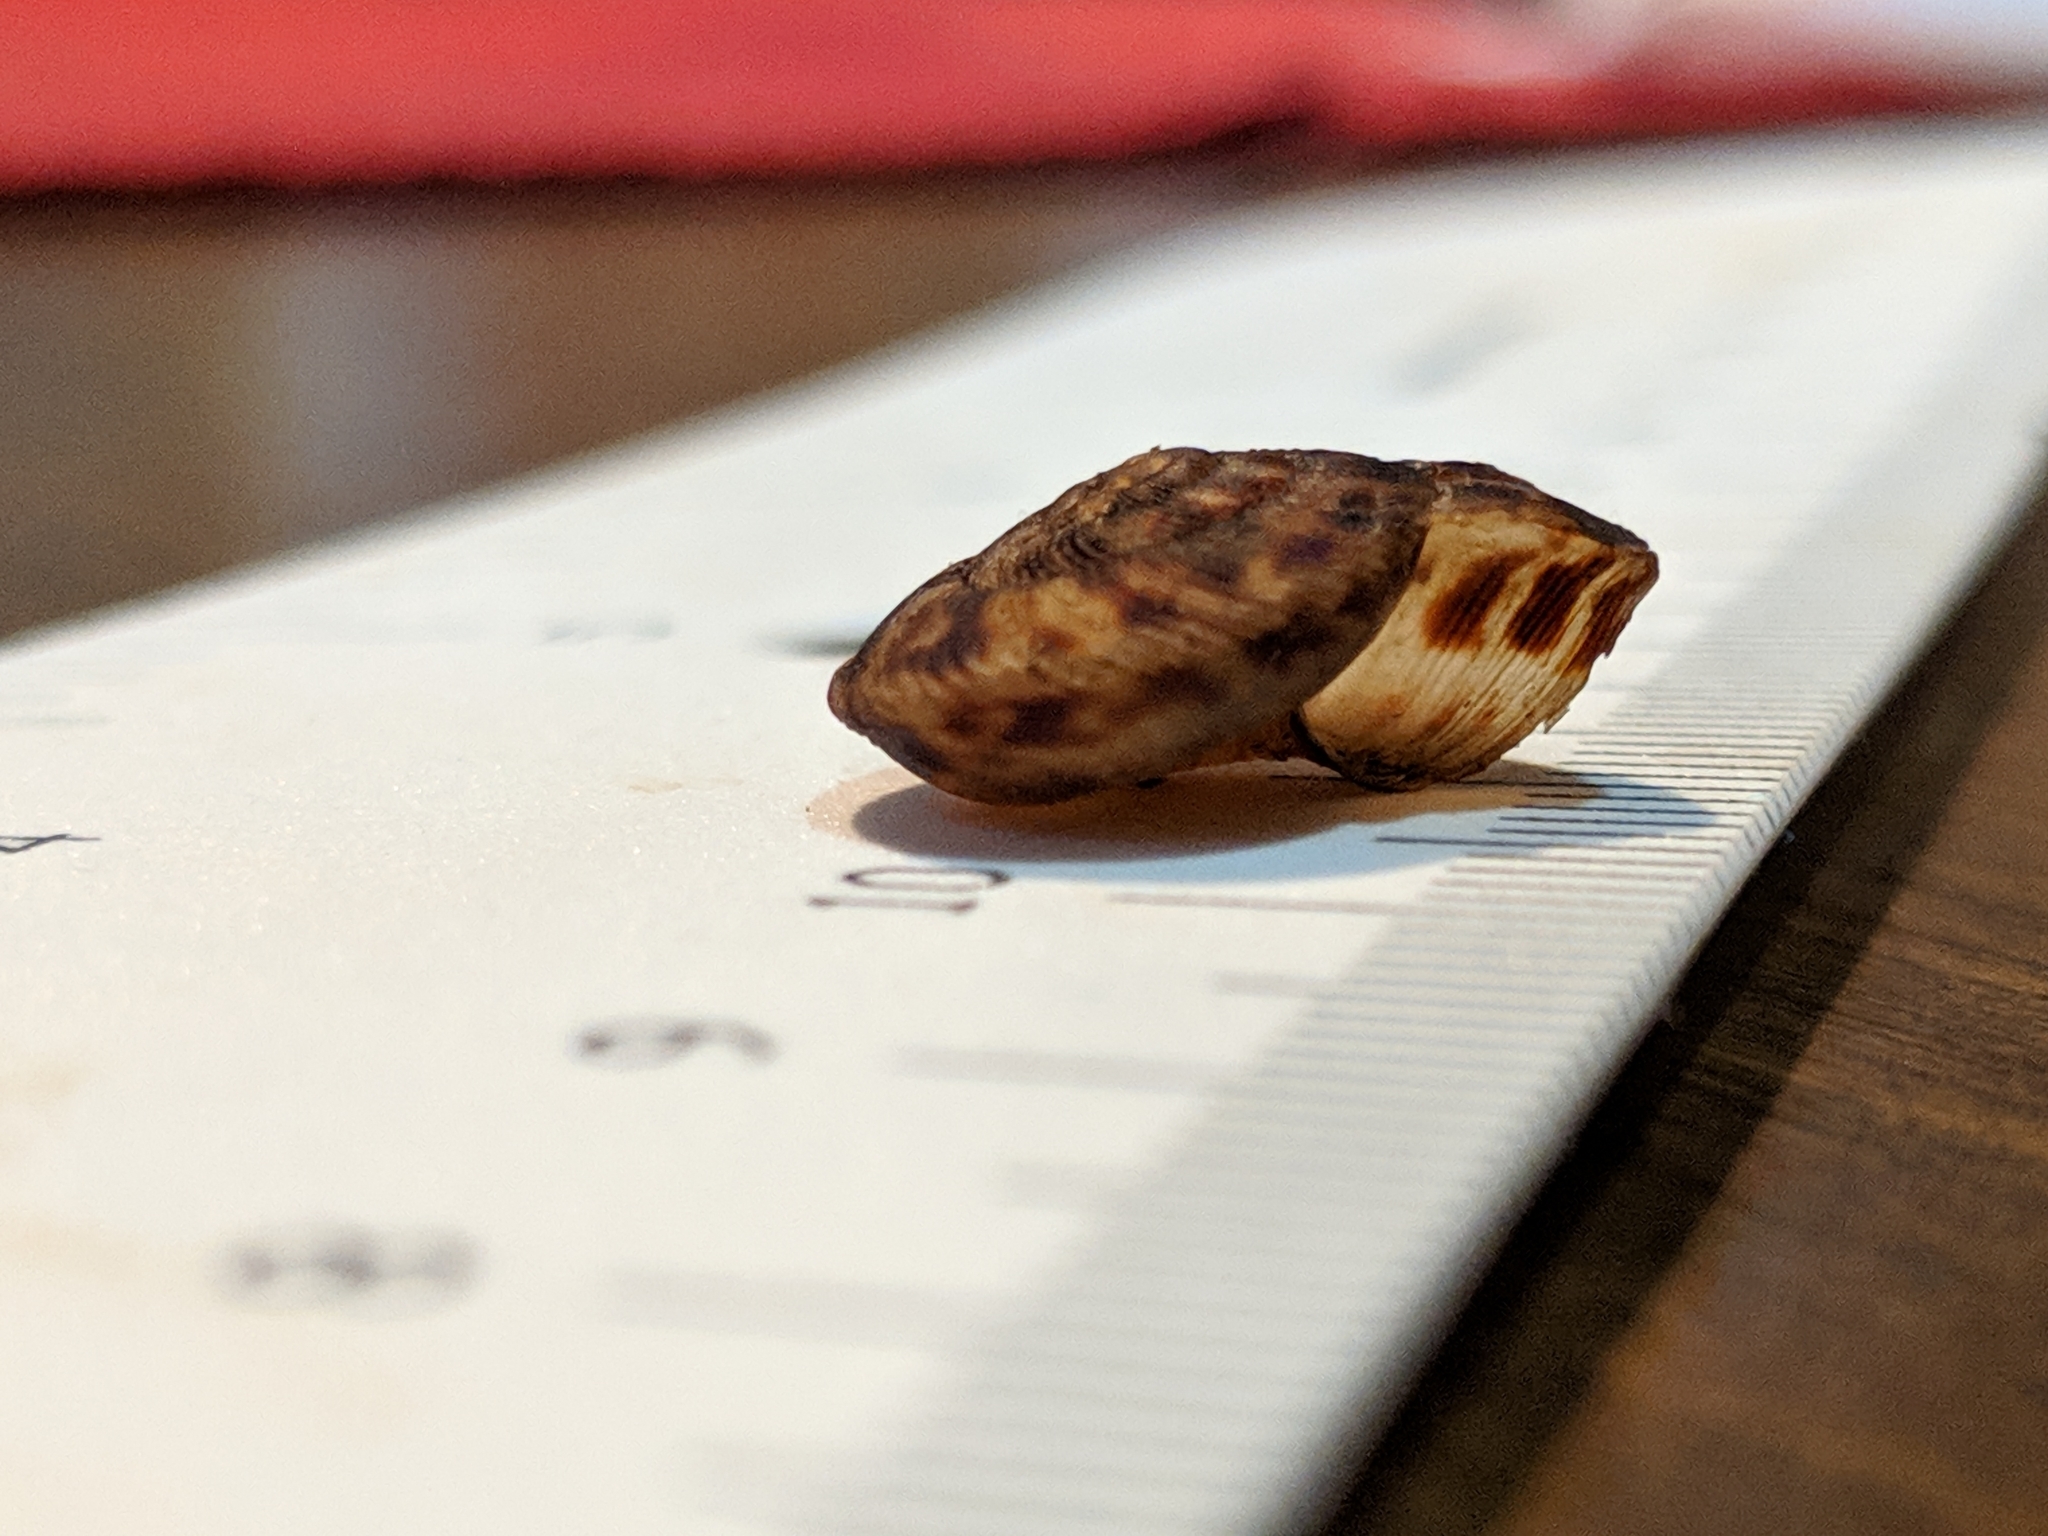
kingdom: Animalia
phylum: Mollusca
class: Gastropoda
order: Stylommatophora
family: Discidae
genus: Anguispira
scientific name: Anguispira alternata
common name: Flamed tigersnail
